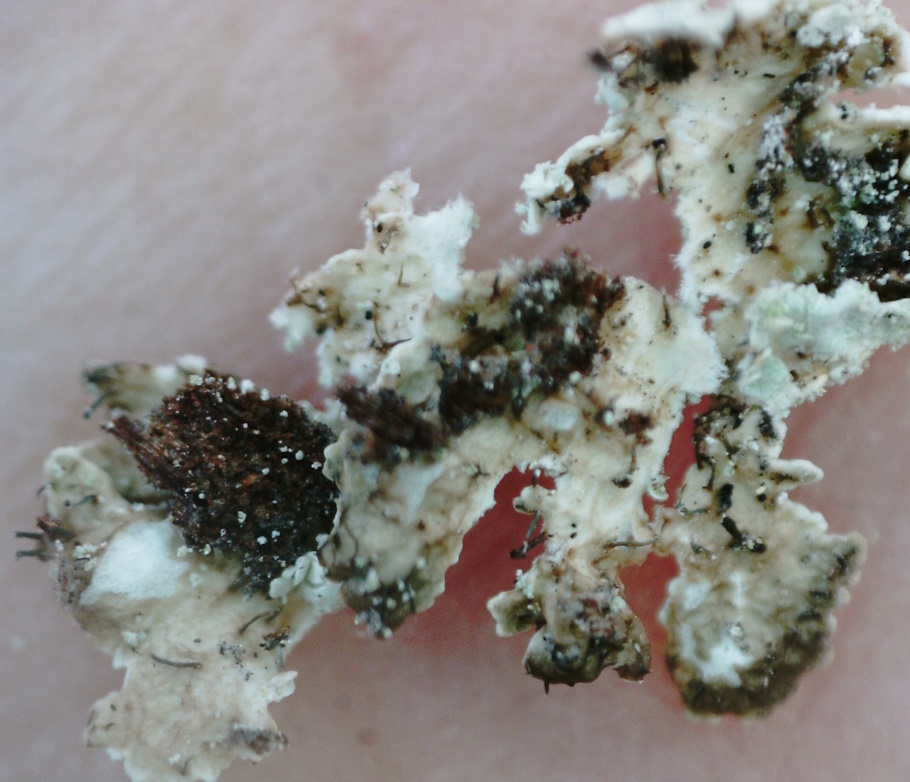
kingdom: Fungi
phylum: Ascomycota
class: Lecanoromycetes
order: Lecanorales
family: Parmeliaceae
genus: Imshaugia
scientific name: Imshaugia aleurites
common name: Salted starburst lichen
